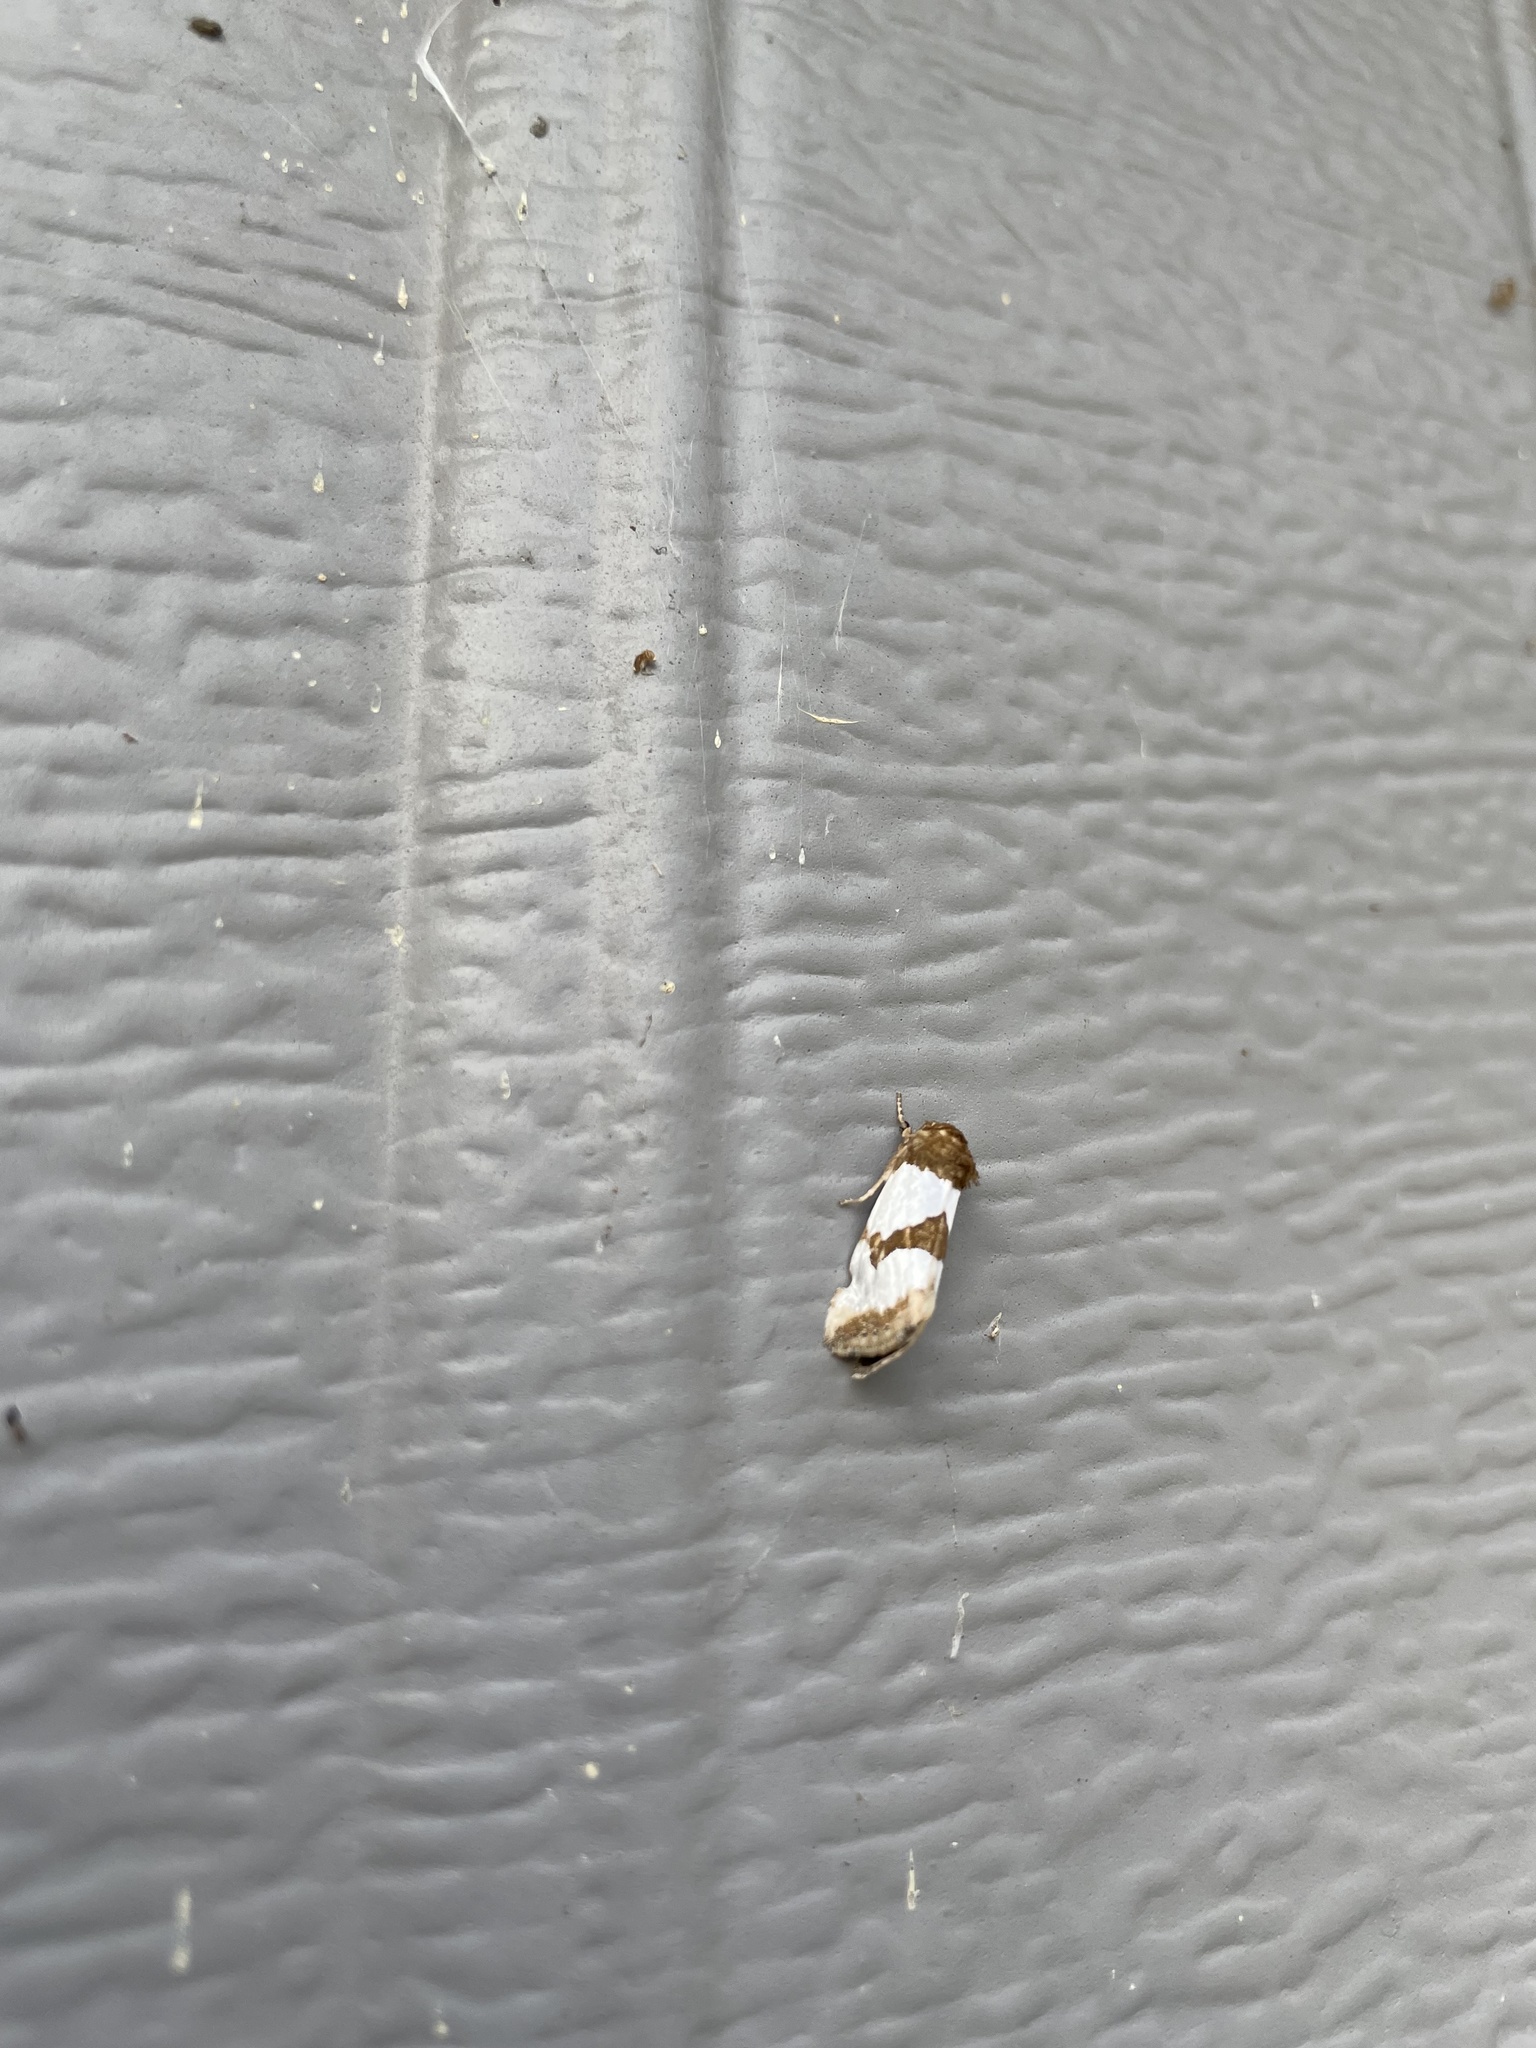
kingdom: Animalia
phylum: Arthropoda
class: Insecta
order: Lepidoptera
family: Noctuidae
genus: Schinia
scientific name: Schinia chrysellus
